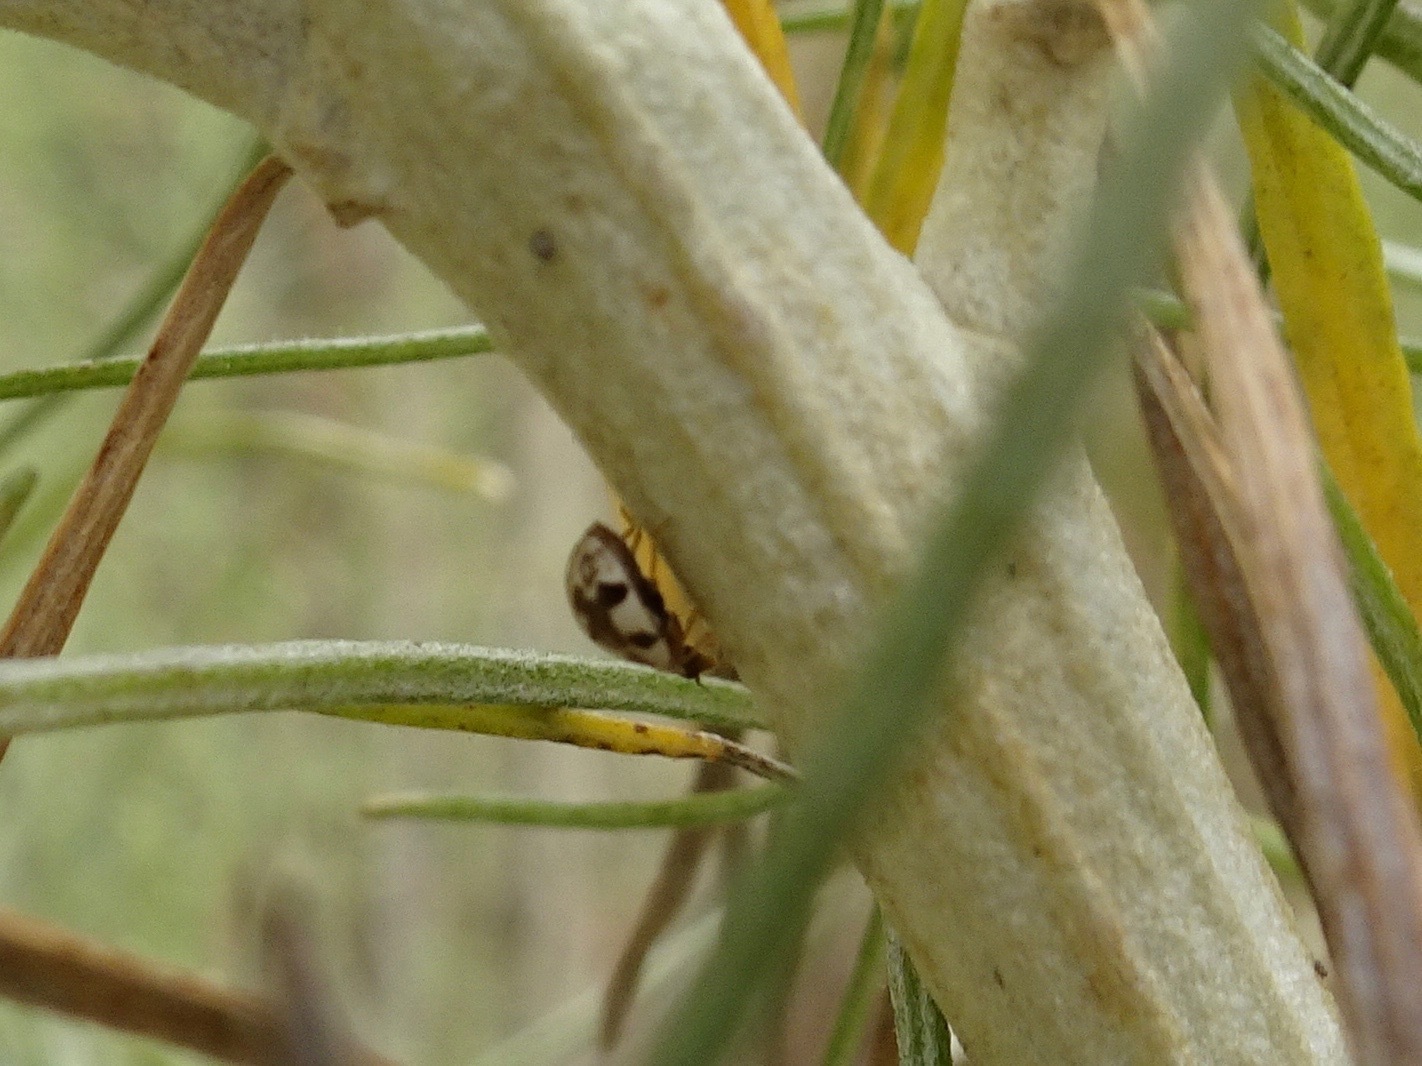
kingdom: Animalia
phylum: Arthropoda
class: Insecta
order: Coleoptera
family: Coccinellidae
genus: Psyllobora
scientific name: Psyllobora vigintimaculata
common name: Ladybird beetle
